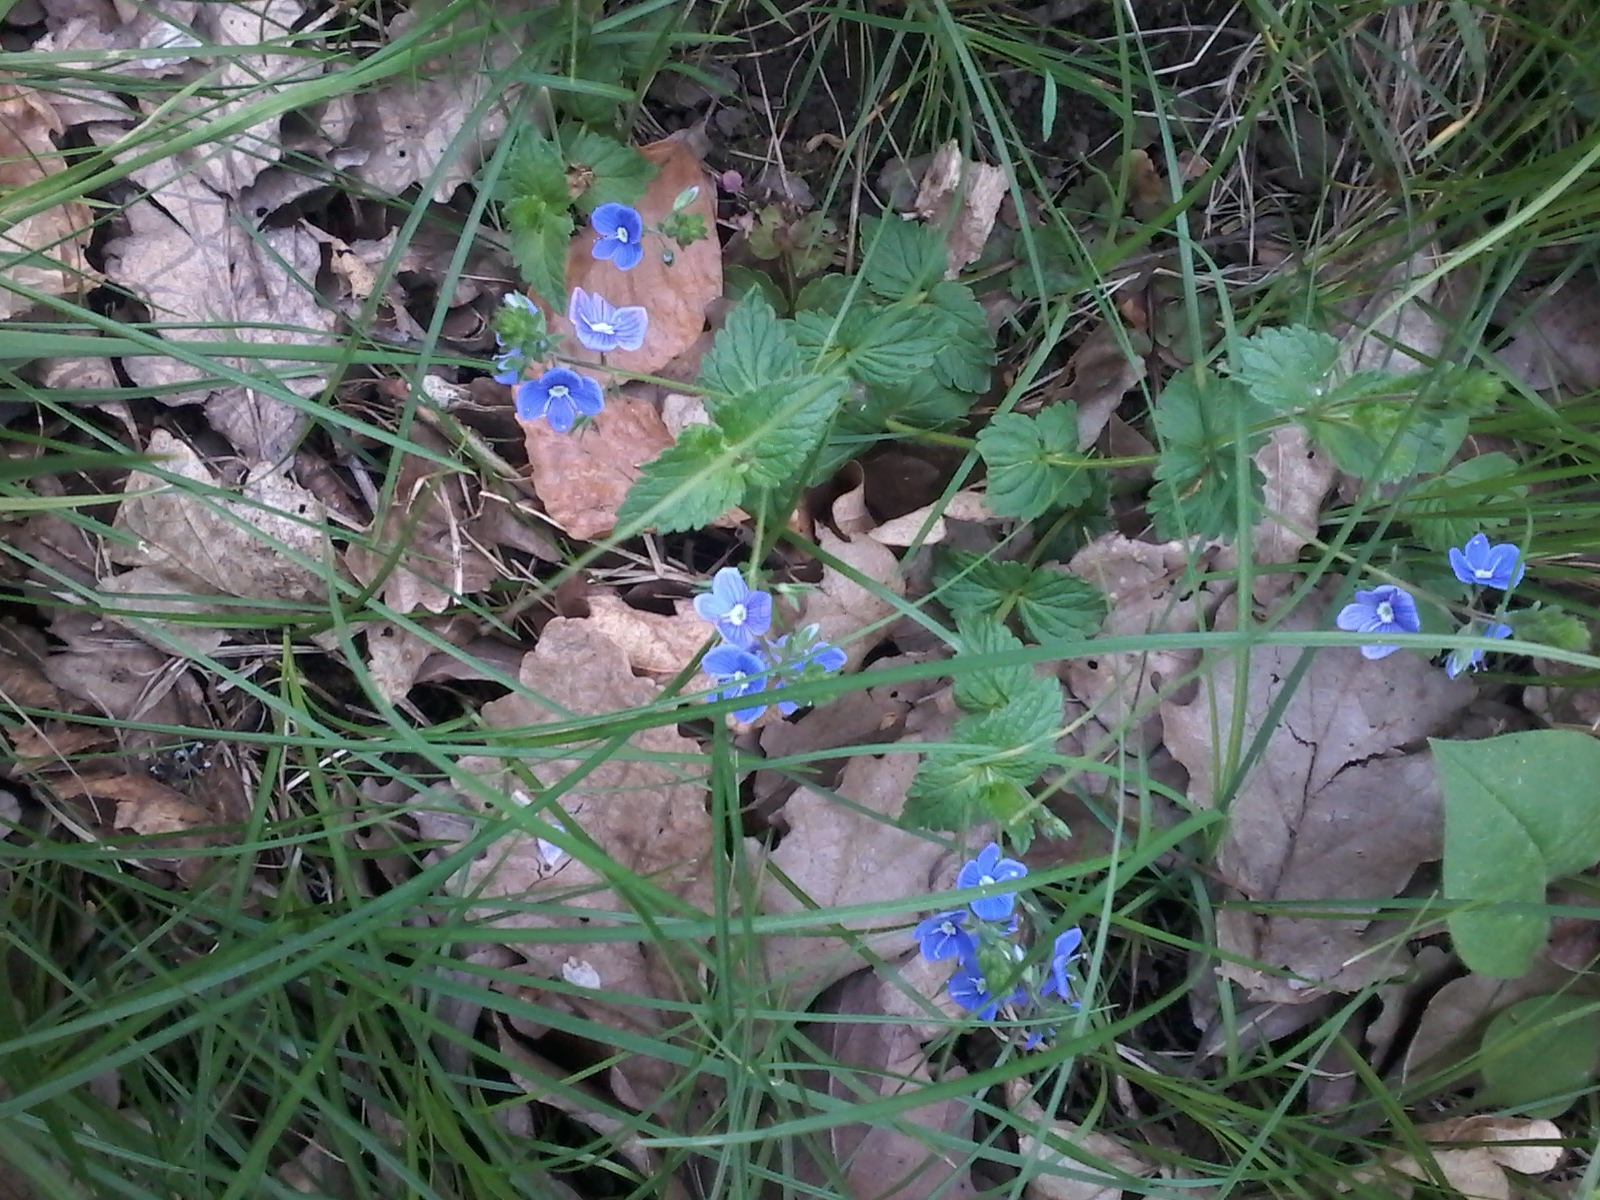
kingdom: Plantae
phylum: Tracheophyta
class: Magnoliopsida
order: Lamiales
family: Plantaginaceae
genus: Veronica
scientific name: Veronica chamaedrys
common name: Germander speedwell
